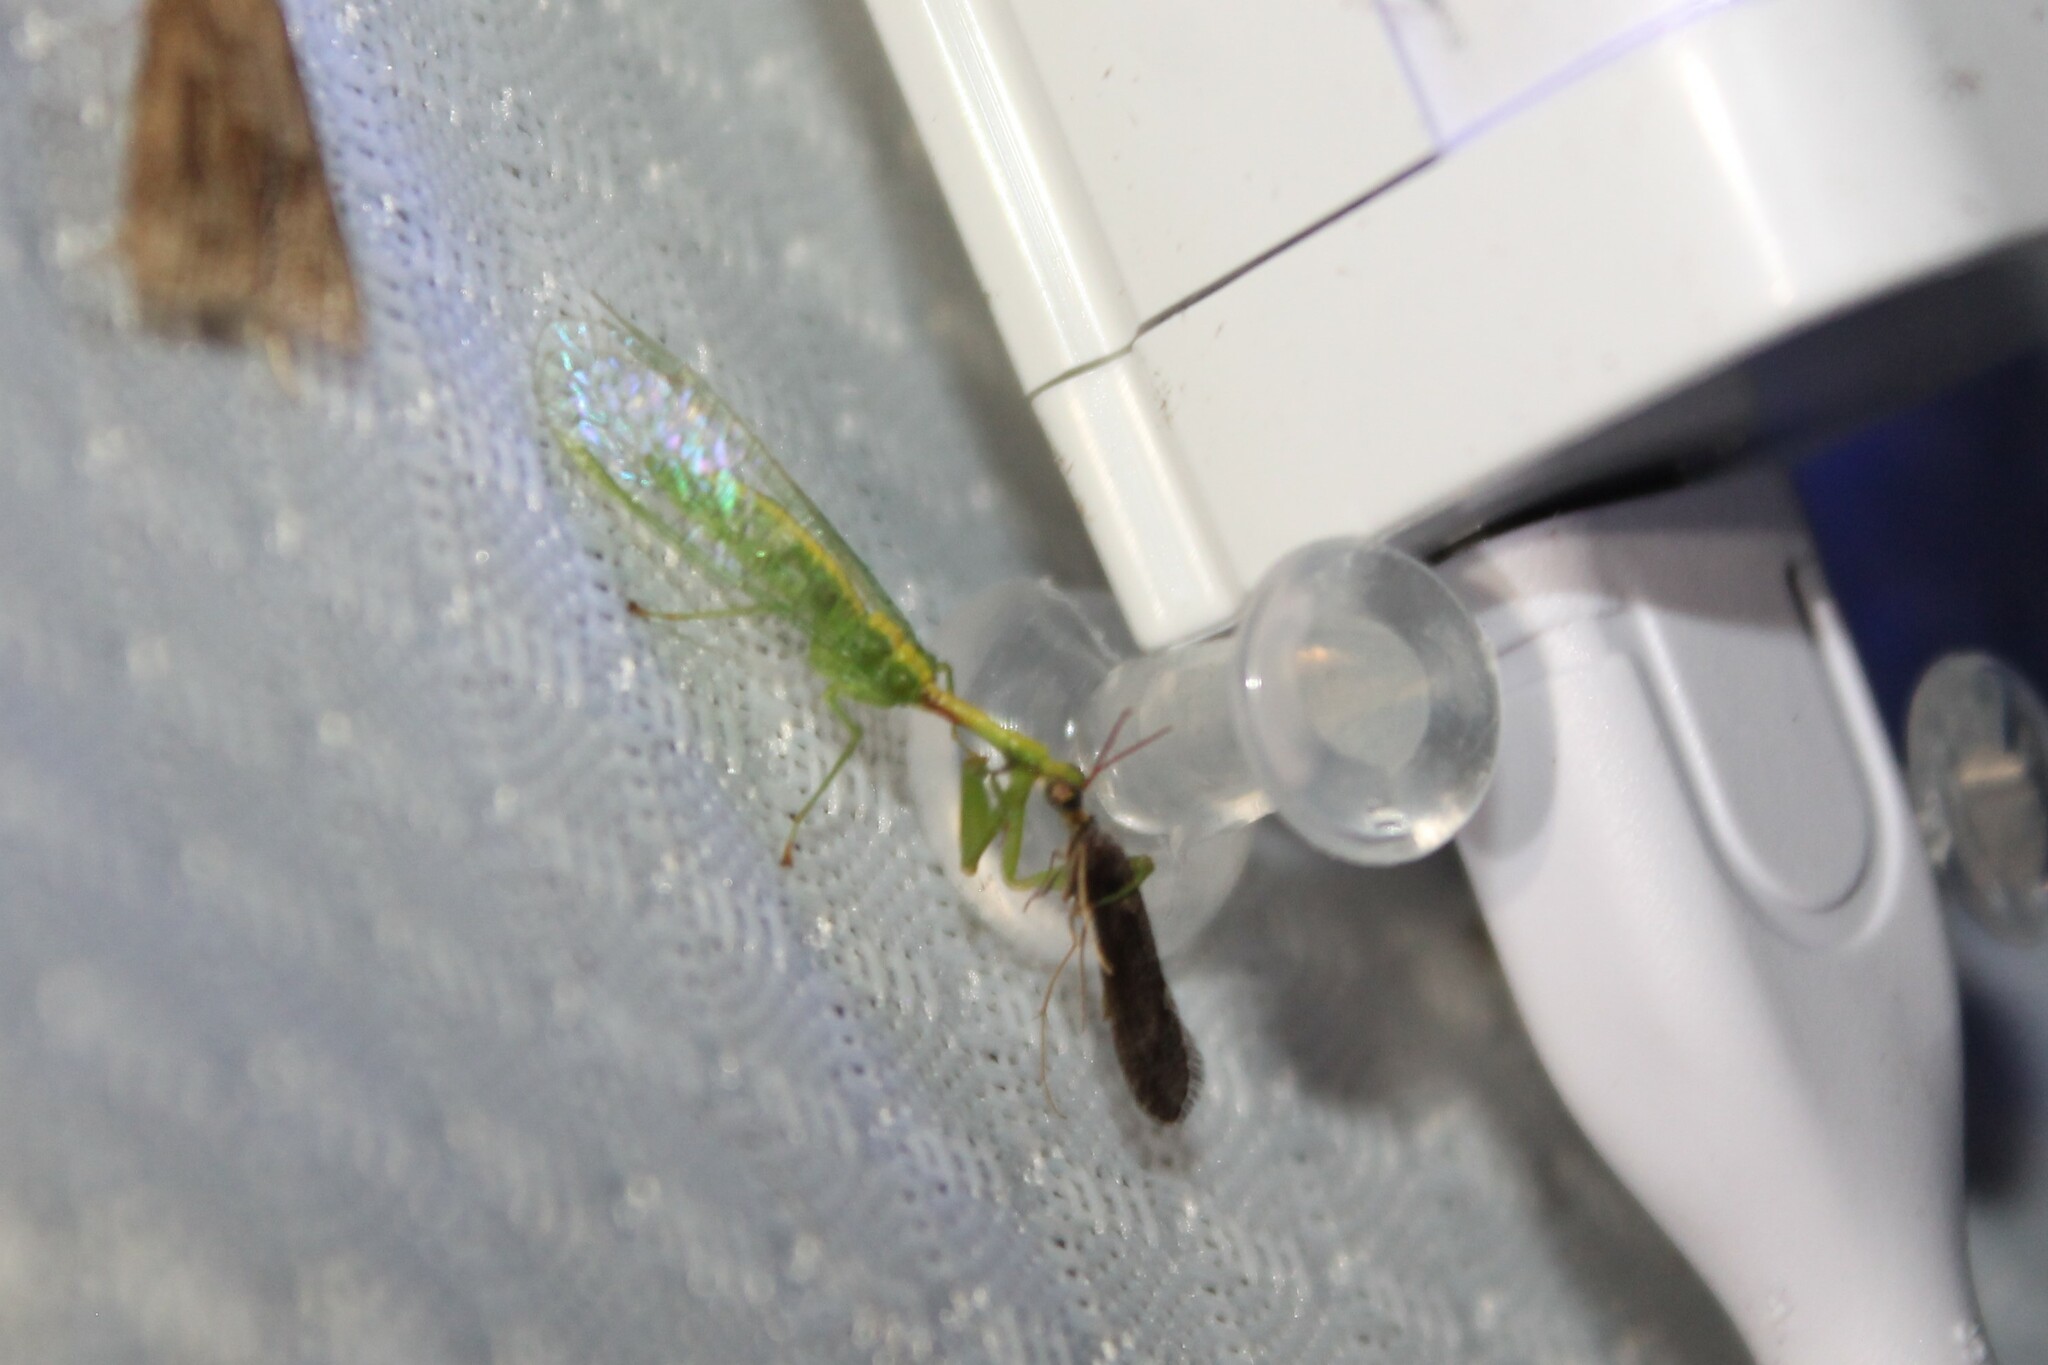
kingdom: Animalia
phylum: Arthropoda
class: Insecta
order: Neuroptera
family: Mantispidae
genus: Zeugomantispa
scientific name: Zeugomantispa minuta
